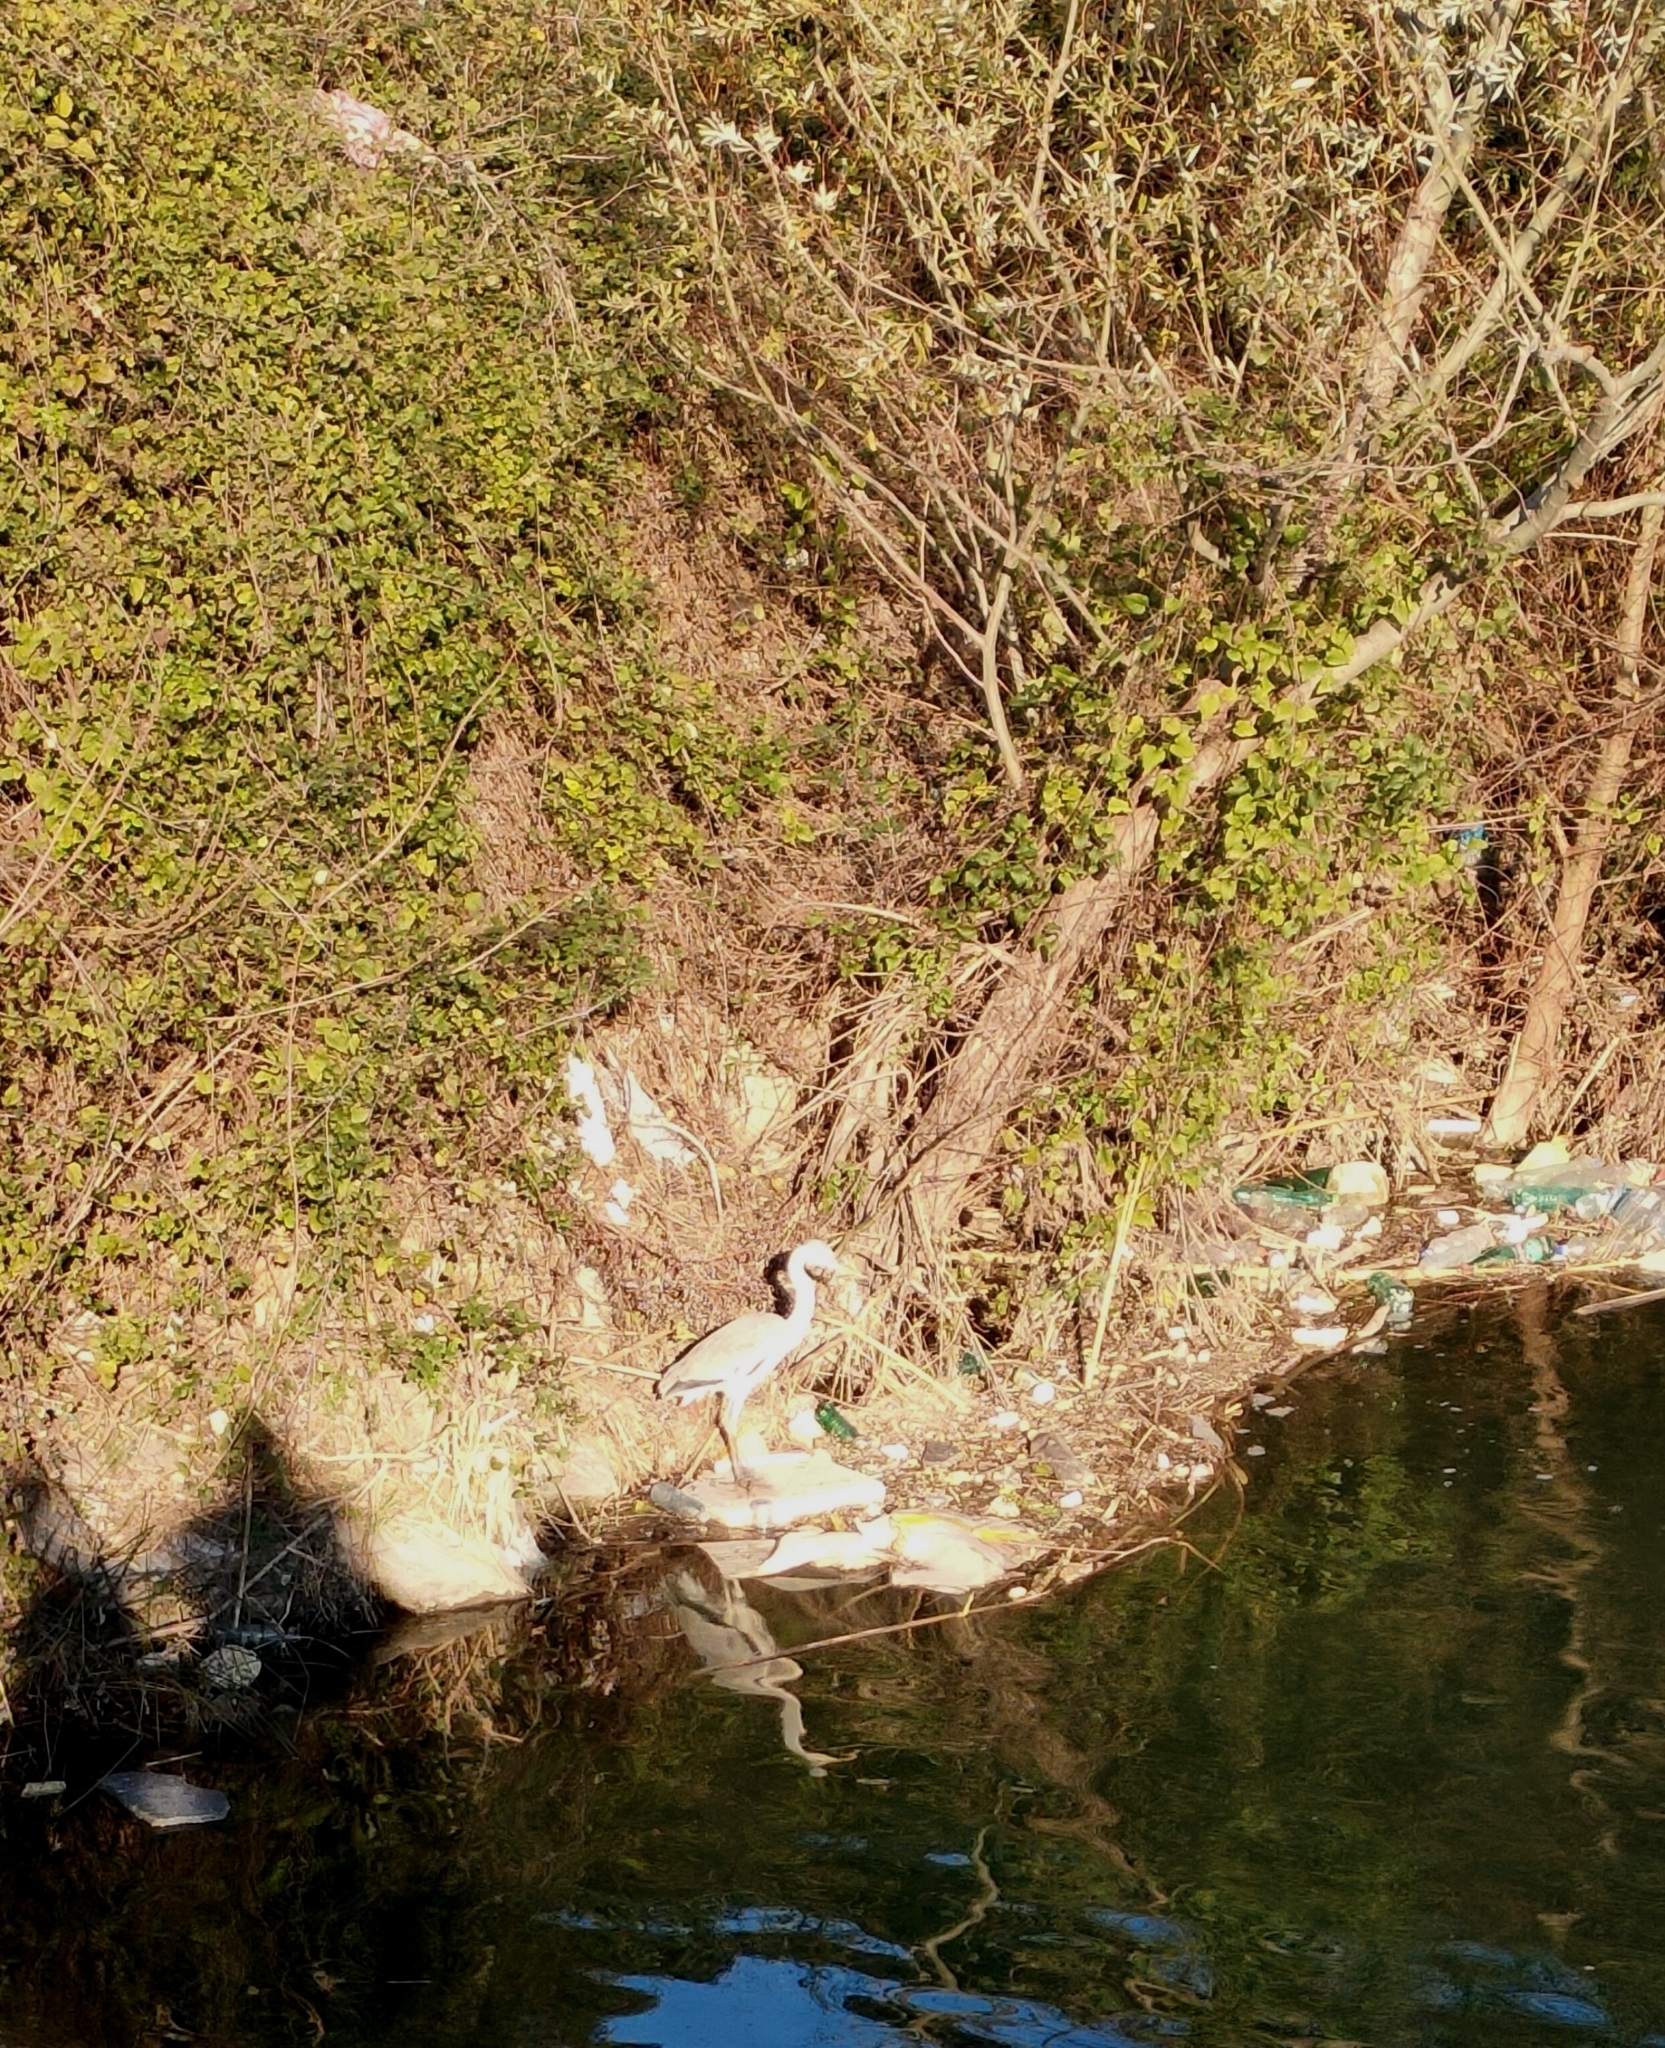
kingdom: Animalia
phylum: Chordata
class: Aves
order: Pelecaniformes
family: Ardeidae
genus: Ardea
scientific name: Ardea cinerea
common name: Grey heron
